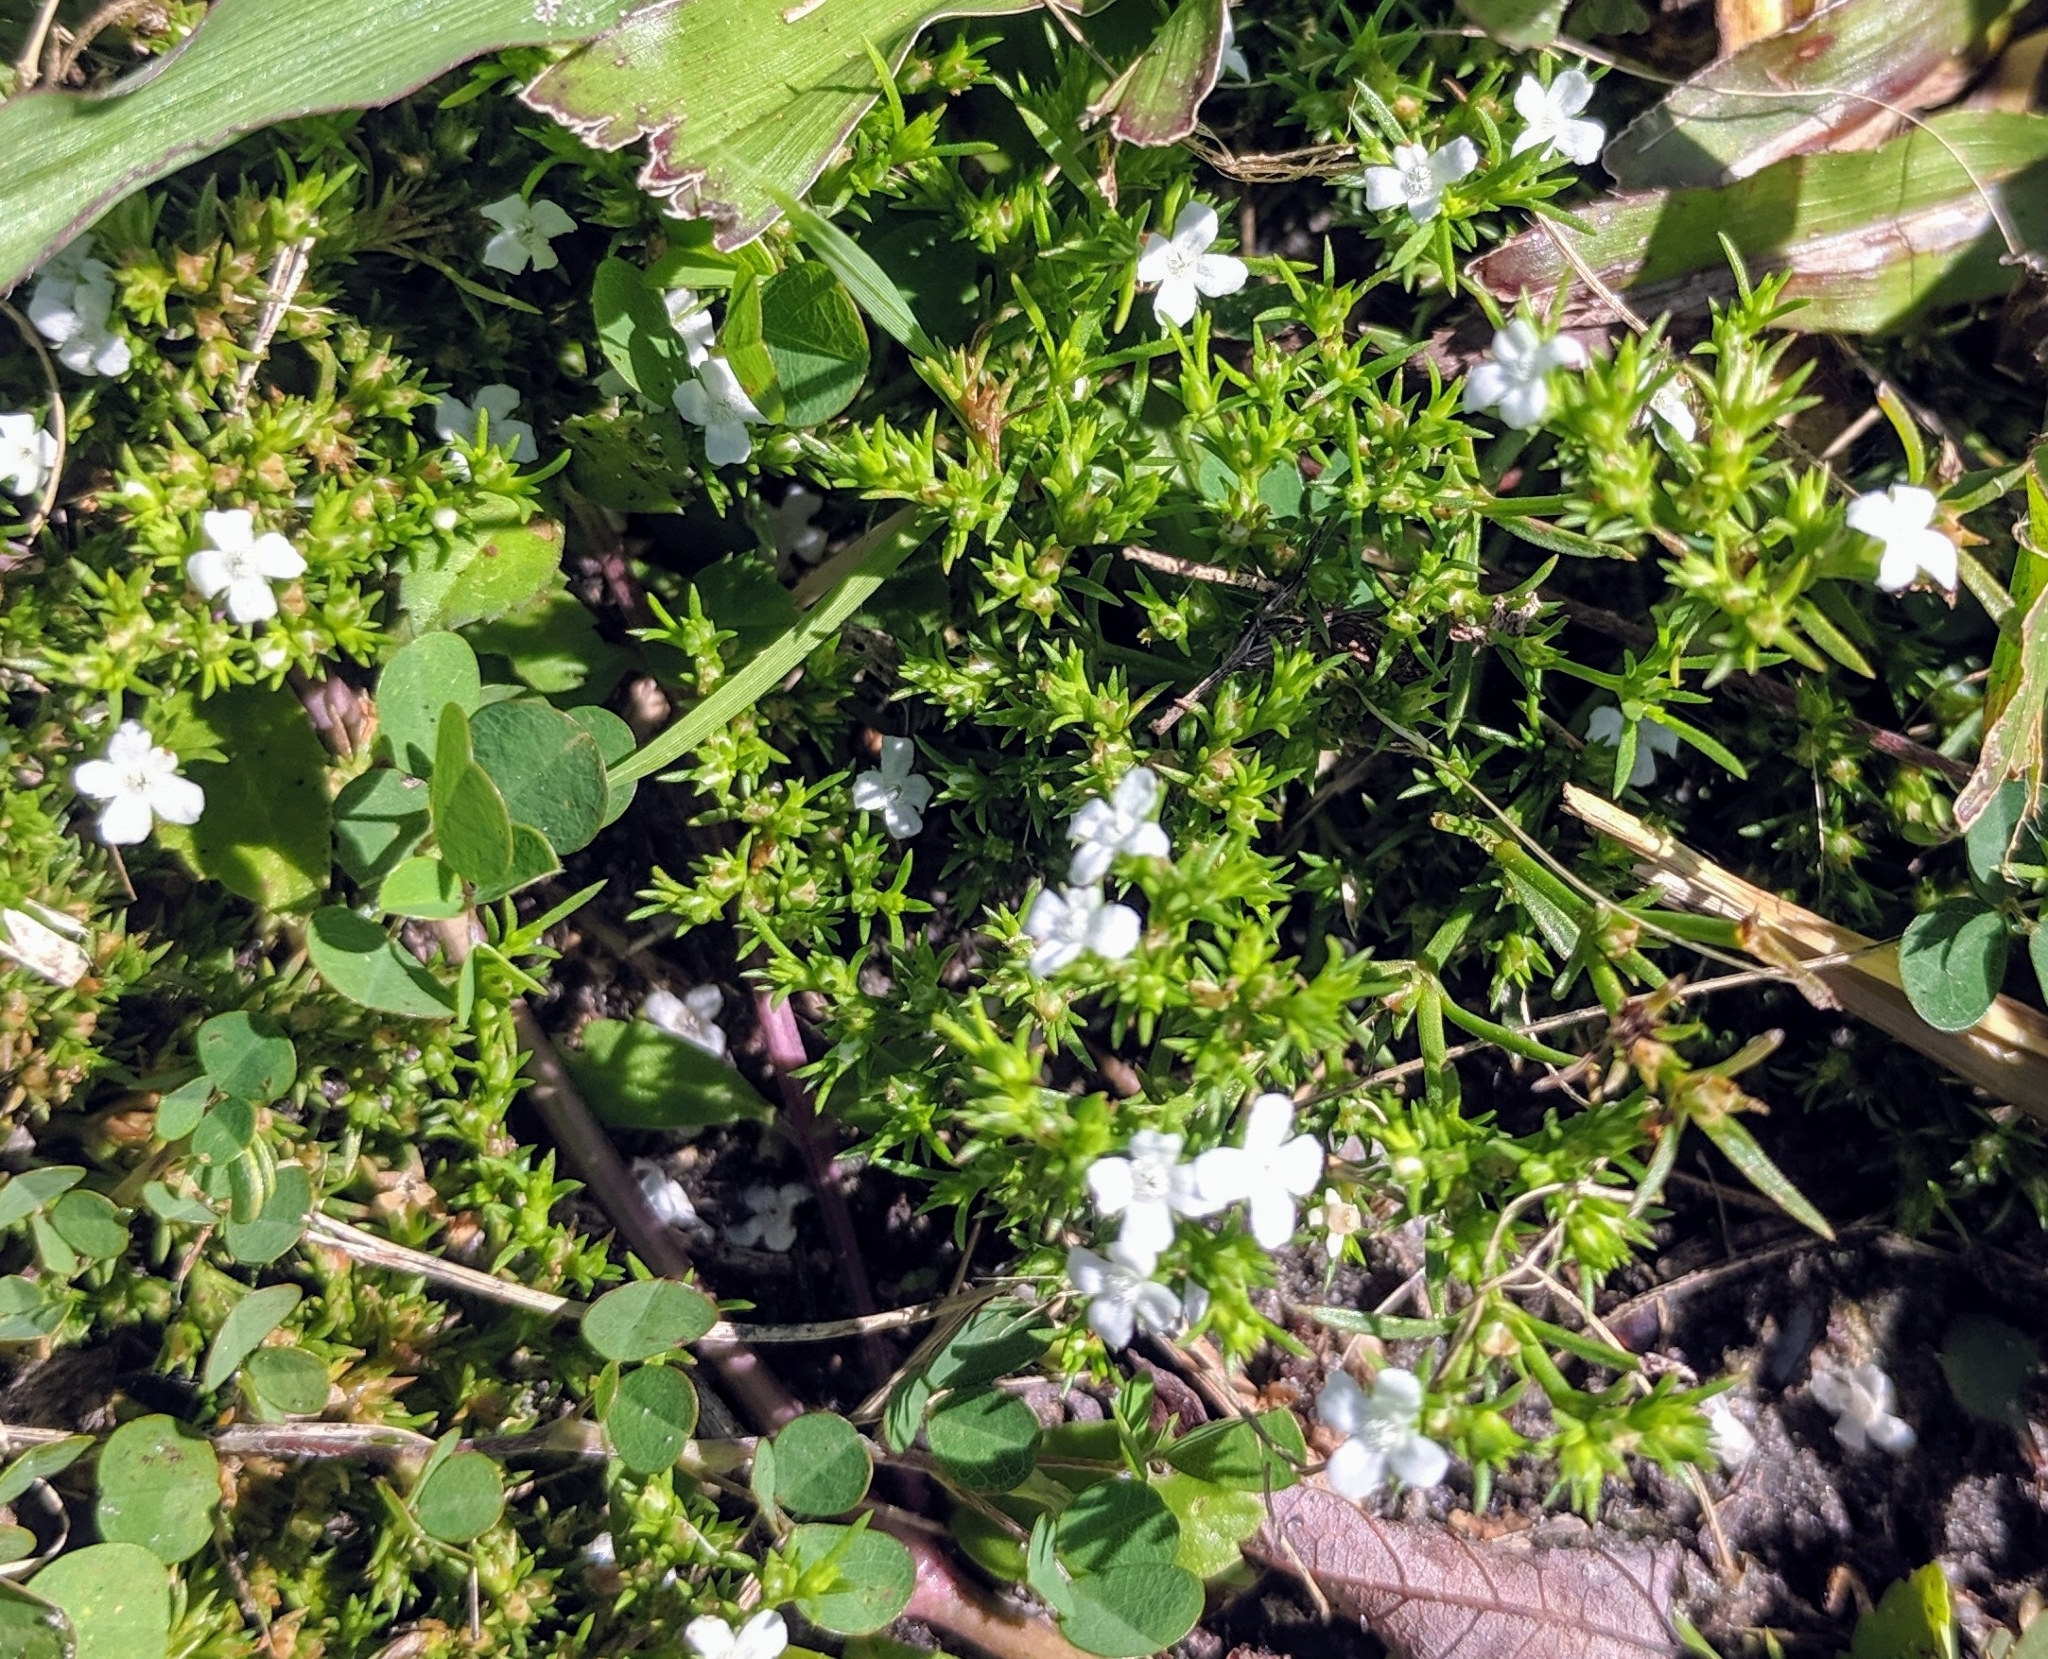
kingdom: Plantae
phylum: Tracheophyta
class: Magnoliopsida
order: Lamiales
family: Tetrachondraceae
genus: Polypremum
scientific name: Polypremum procumbens
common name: Juniper-leaf
